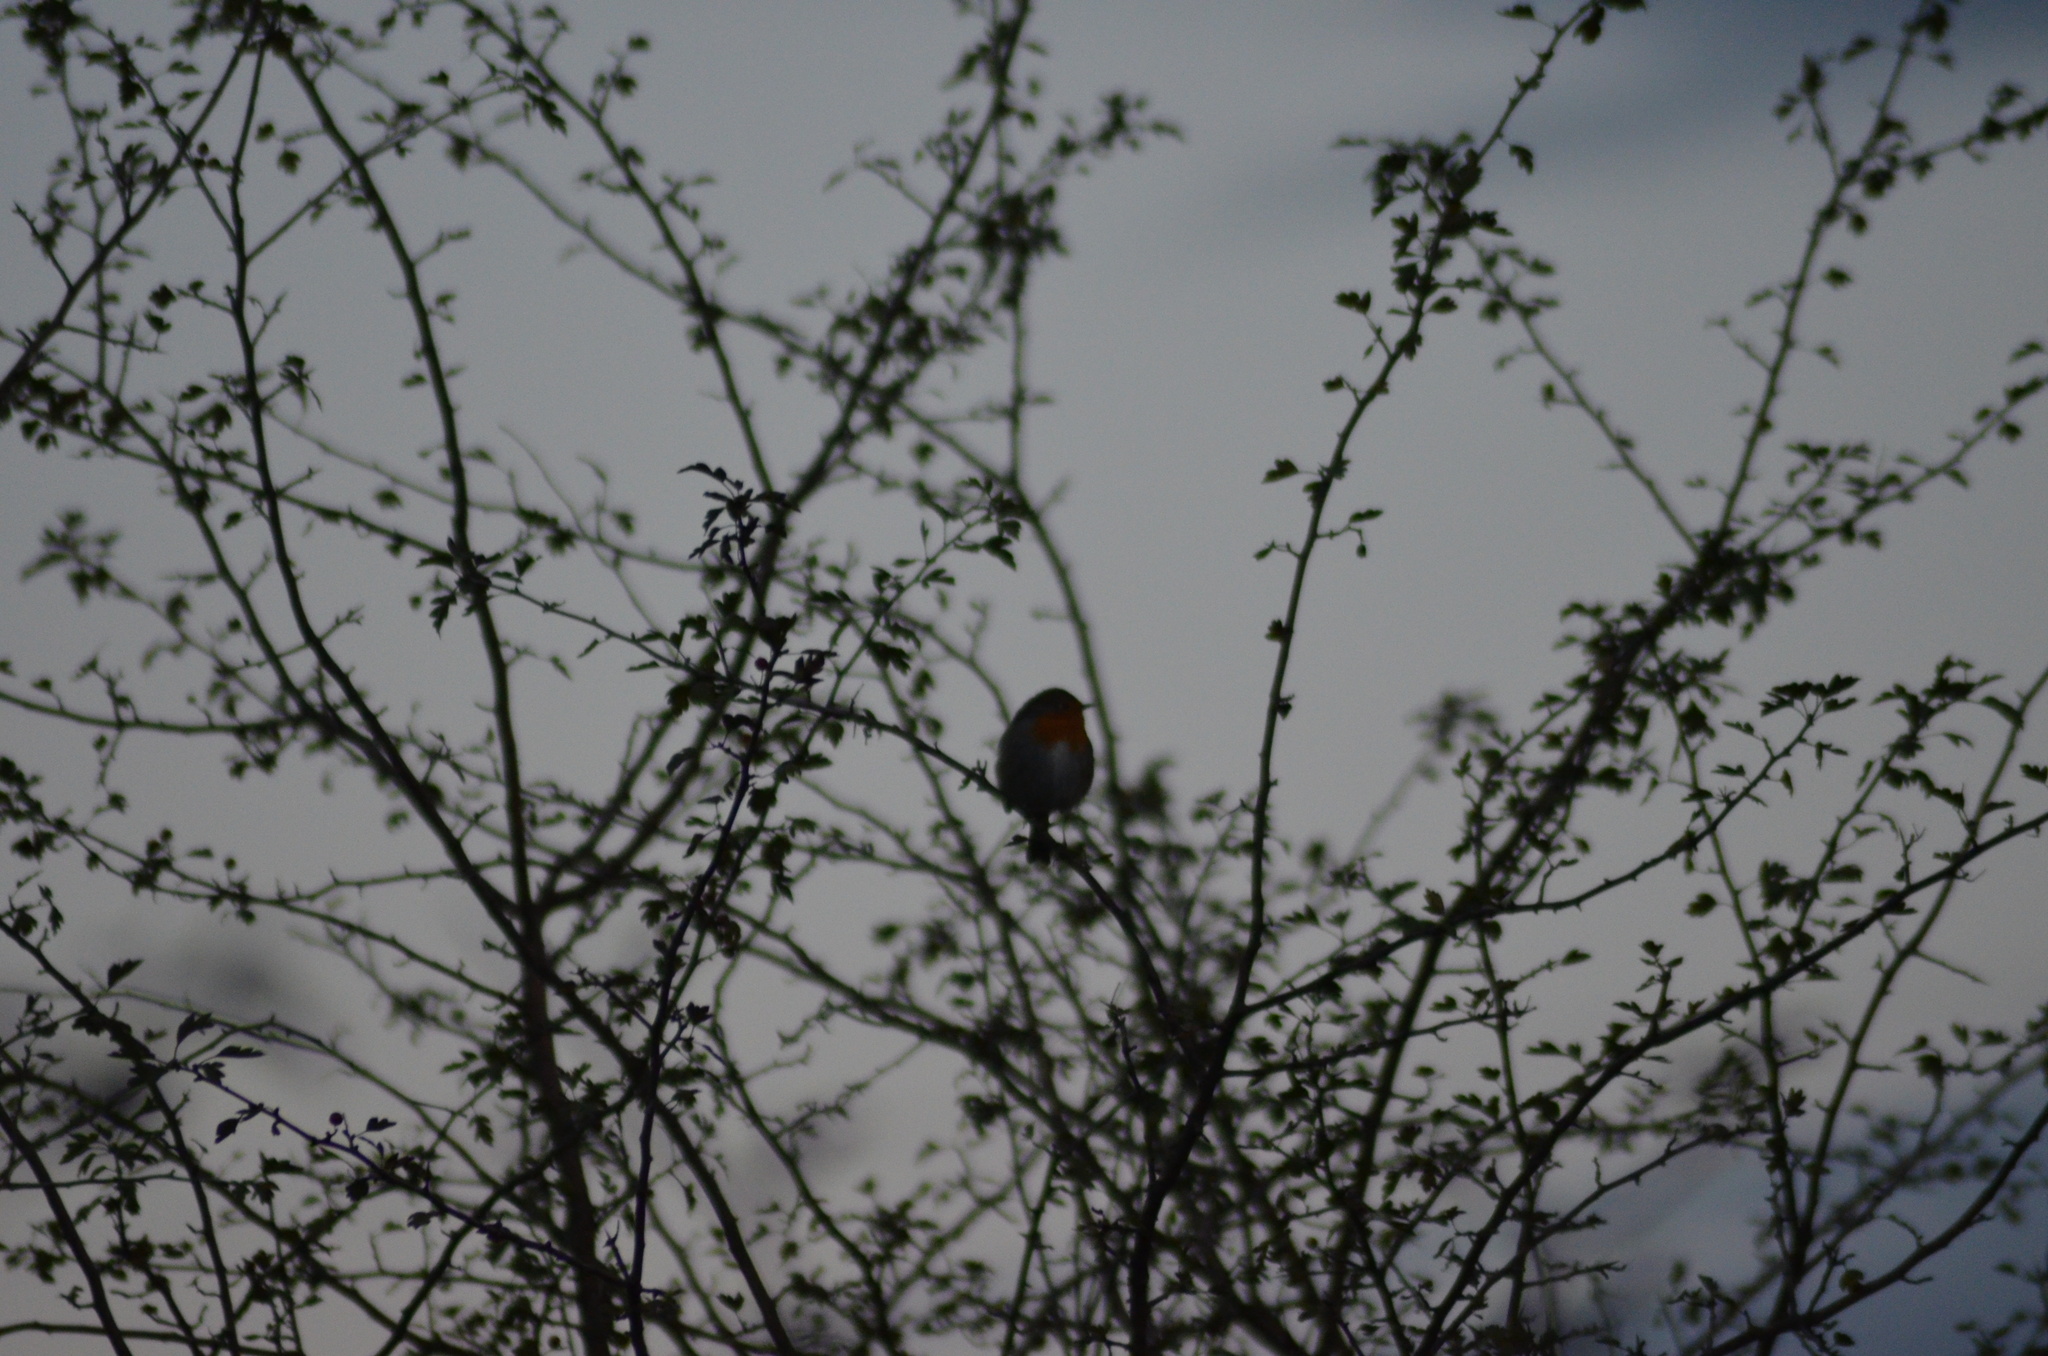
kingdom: Animalia
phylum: Chordata
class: Aves
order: Passeriformes
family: Muscicapidae
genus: Erithacus
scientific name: Erithacus rubecula
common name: European robin
